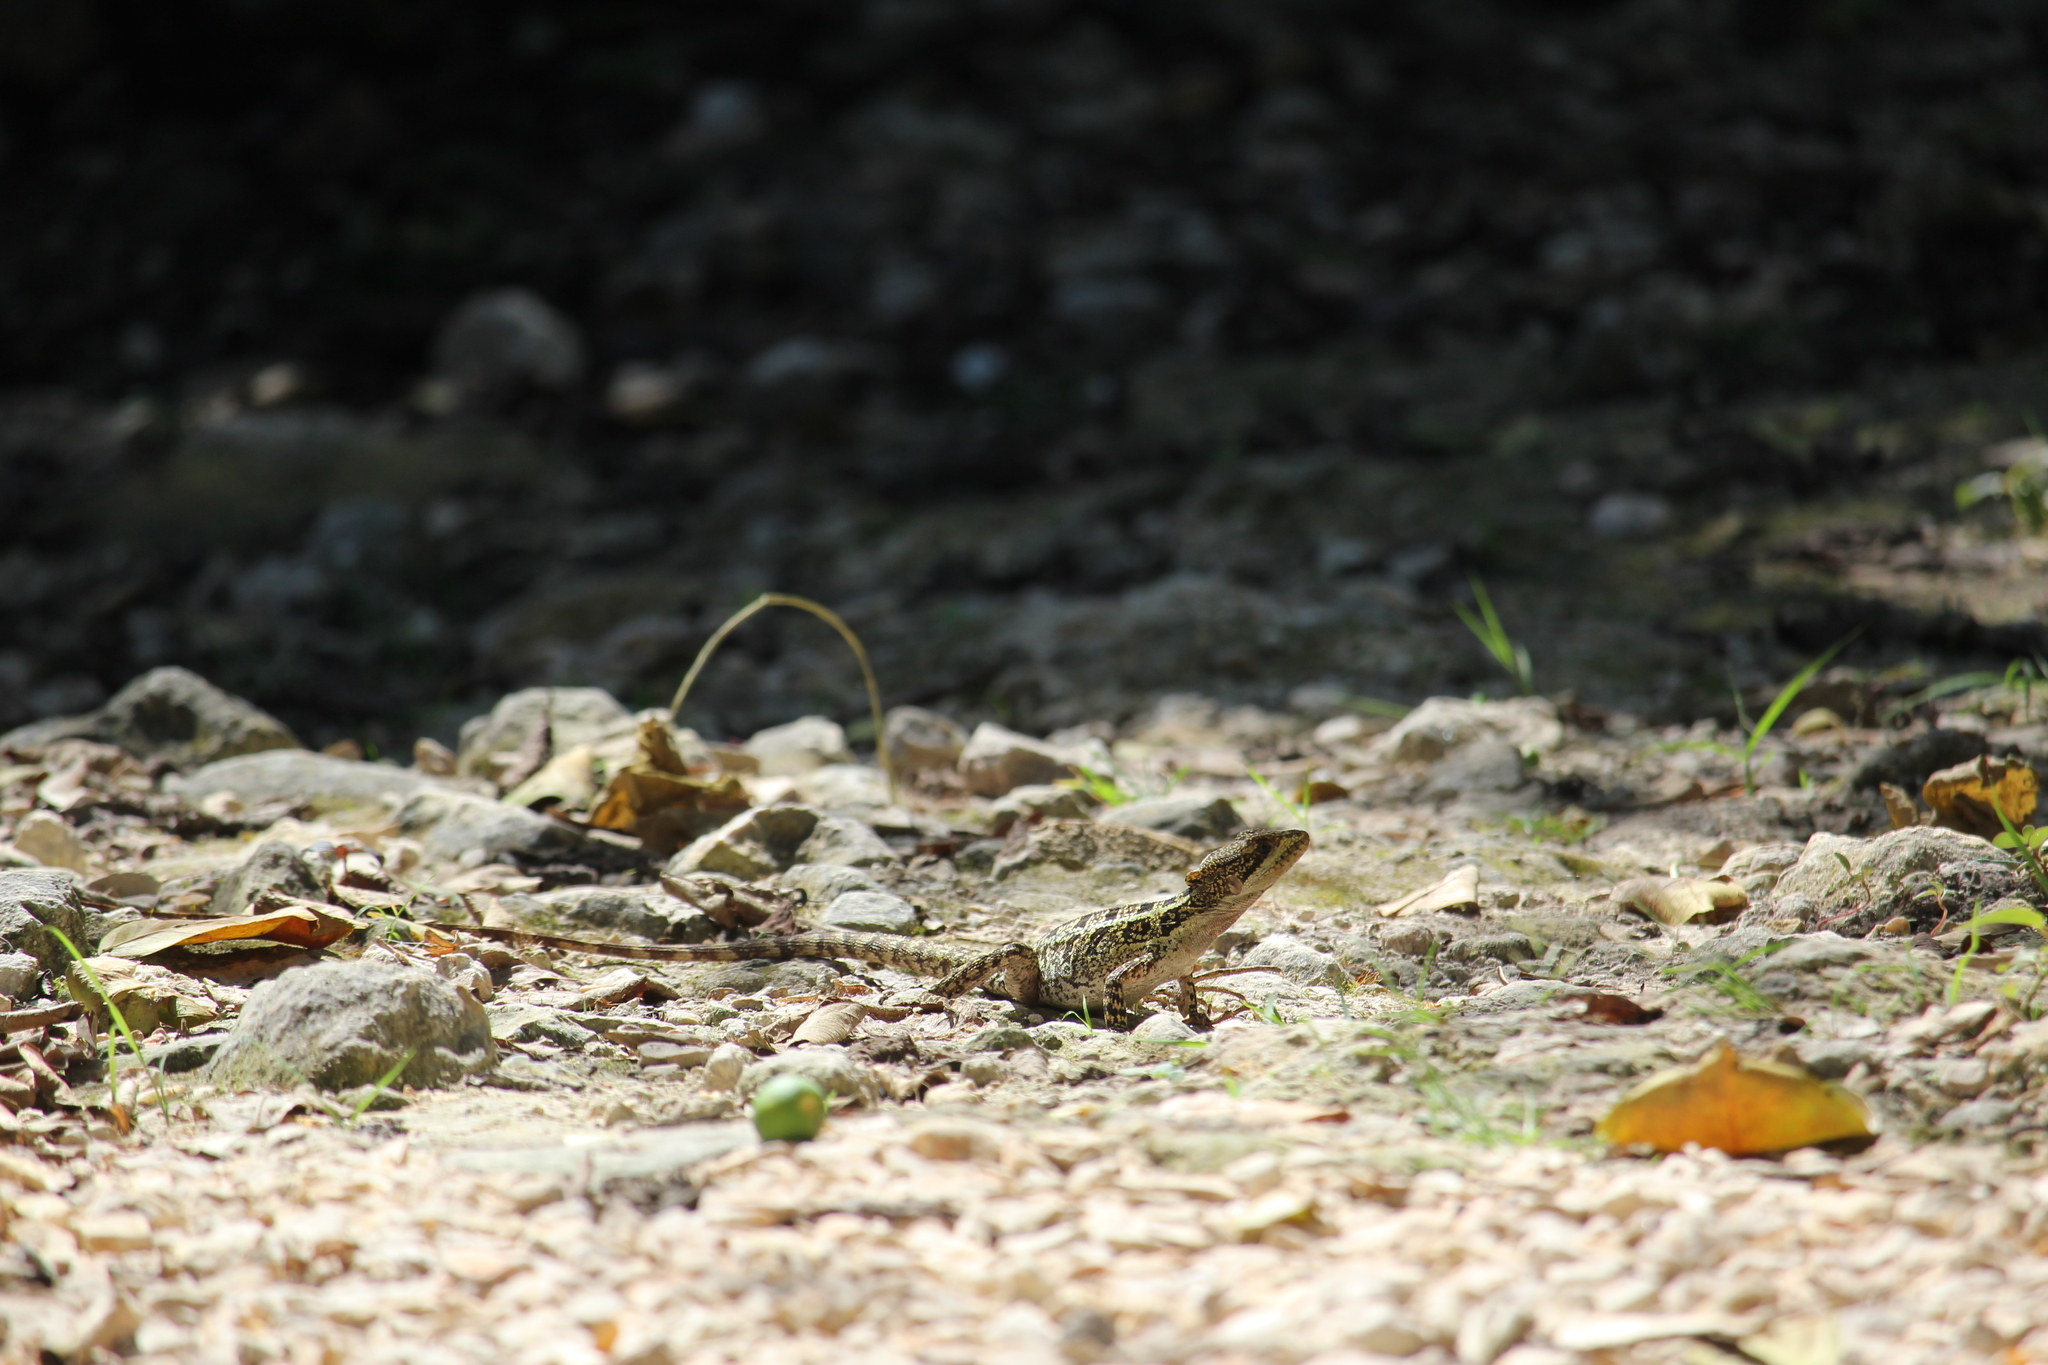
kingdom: Animalia
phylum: Chordata
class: Squamata
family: Corytophanidae
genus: Basiliscus
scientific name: Basiliscus vittatus
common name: Brown basilisk
